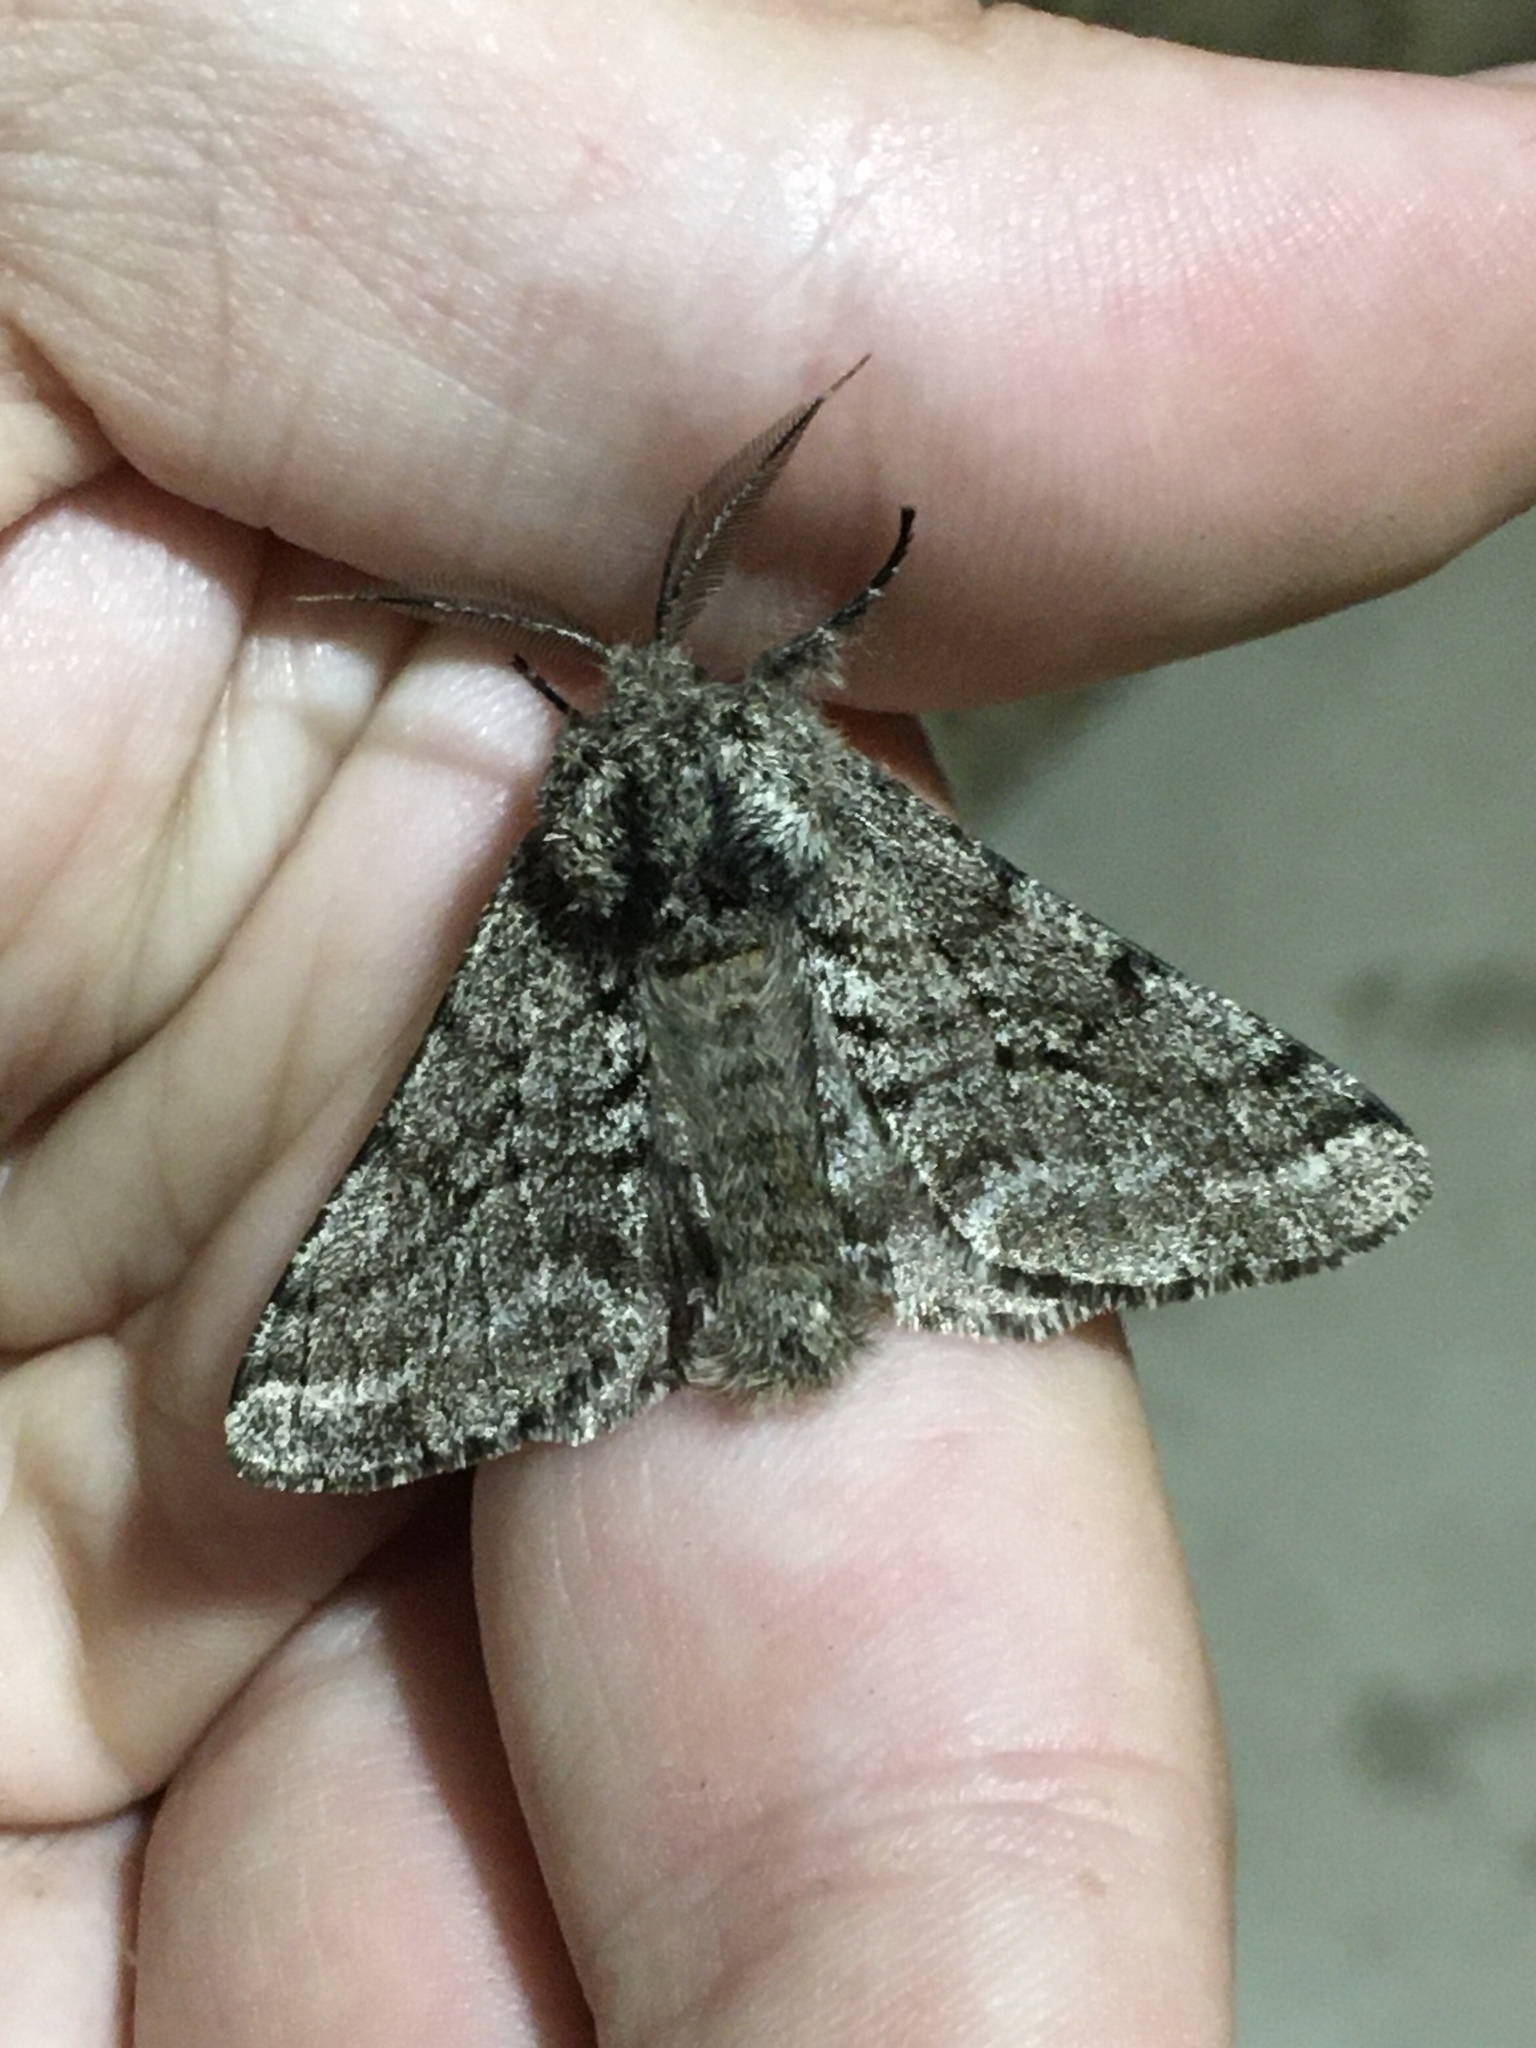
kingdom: Animalia
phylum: Arthropoda
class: Insecta
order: Lepidoptera
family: Geometridae
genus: Lycia
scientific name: Lycia ursaria
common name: Stout spanworm
